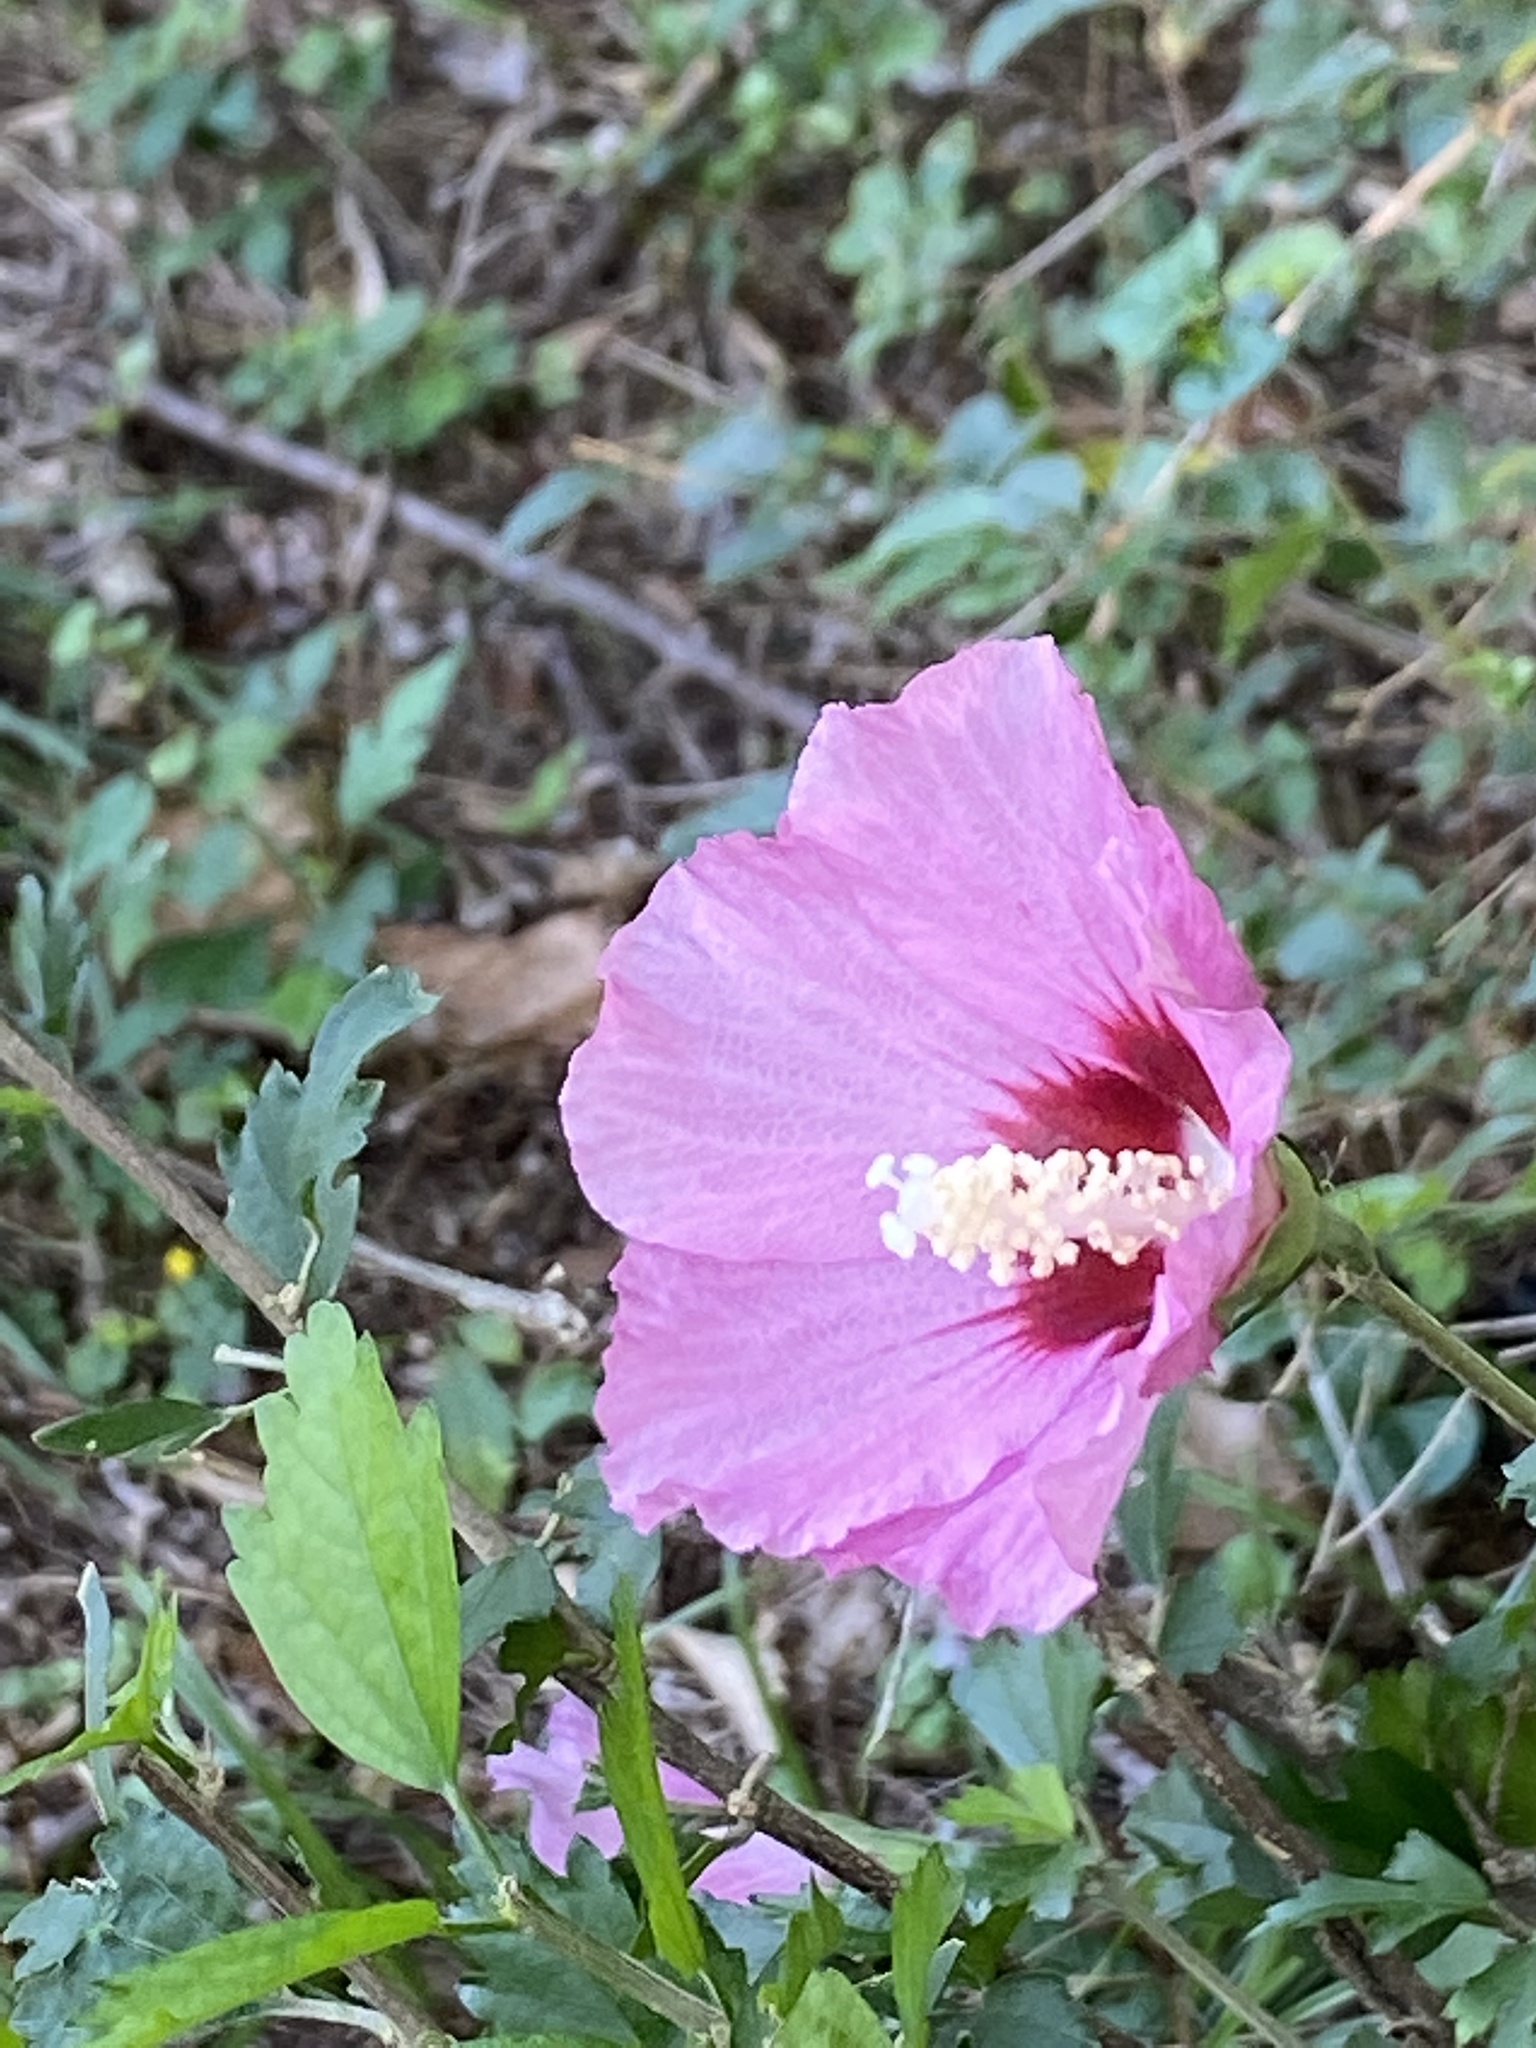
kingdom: Plantae
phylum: Tracheophyta
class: Magnoliopsida
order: Malvales
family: Malvaceae
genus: Hibiscus
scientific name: Hibiscus syriacus
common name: Syrian ketmia
